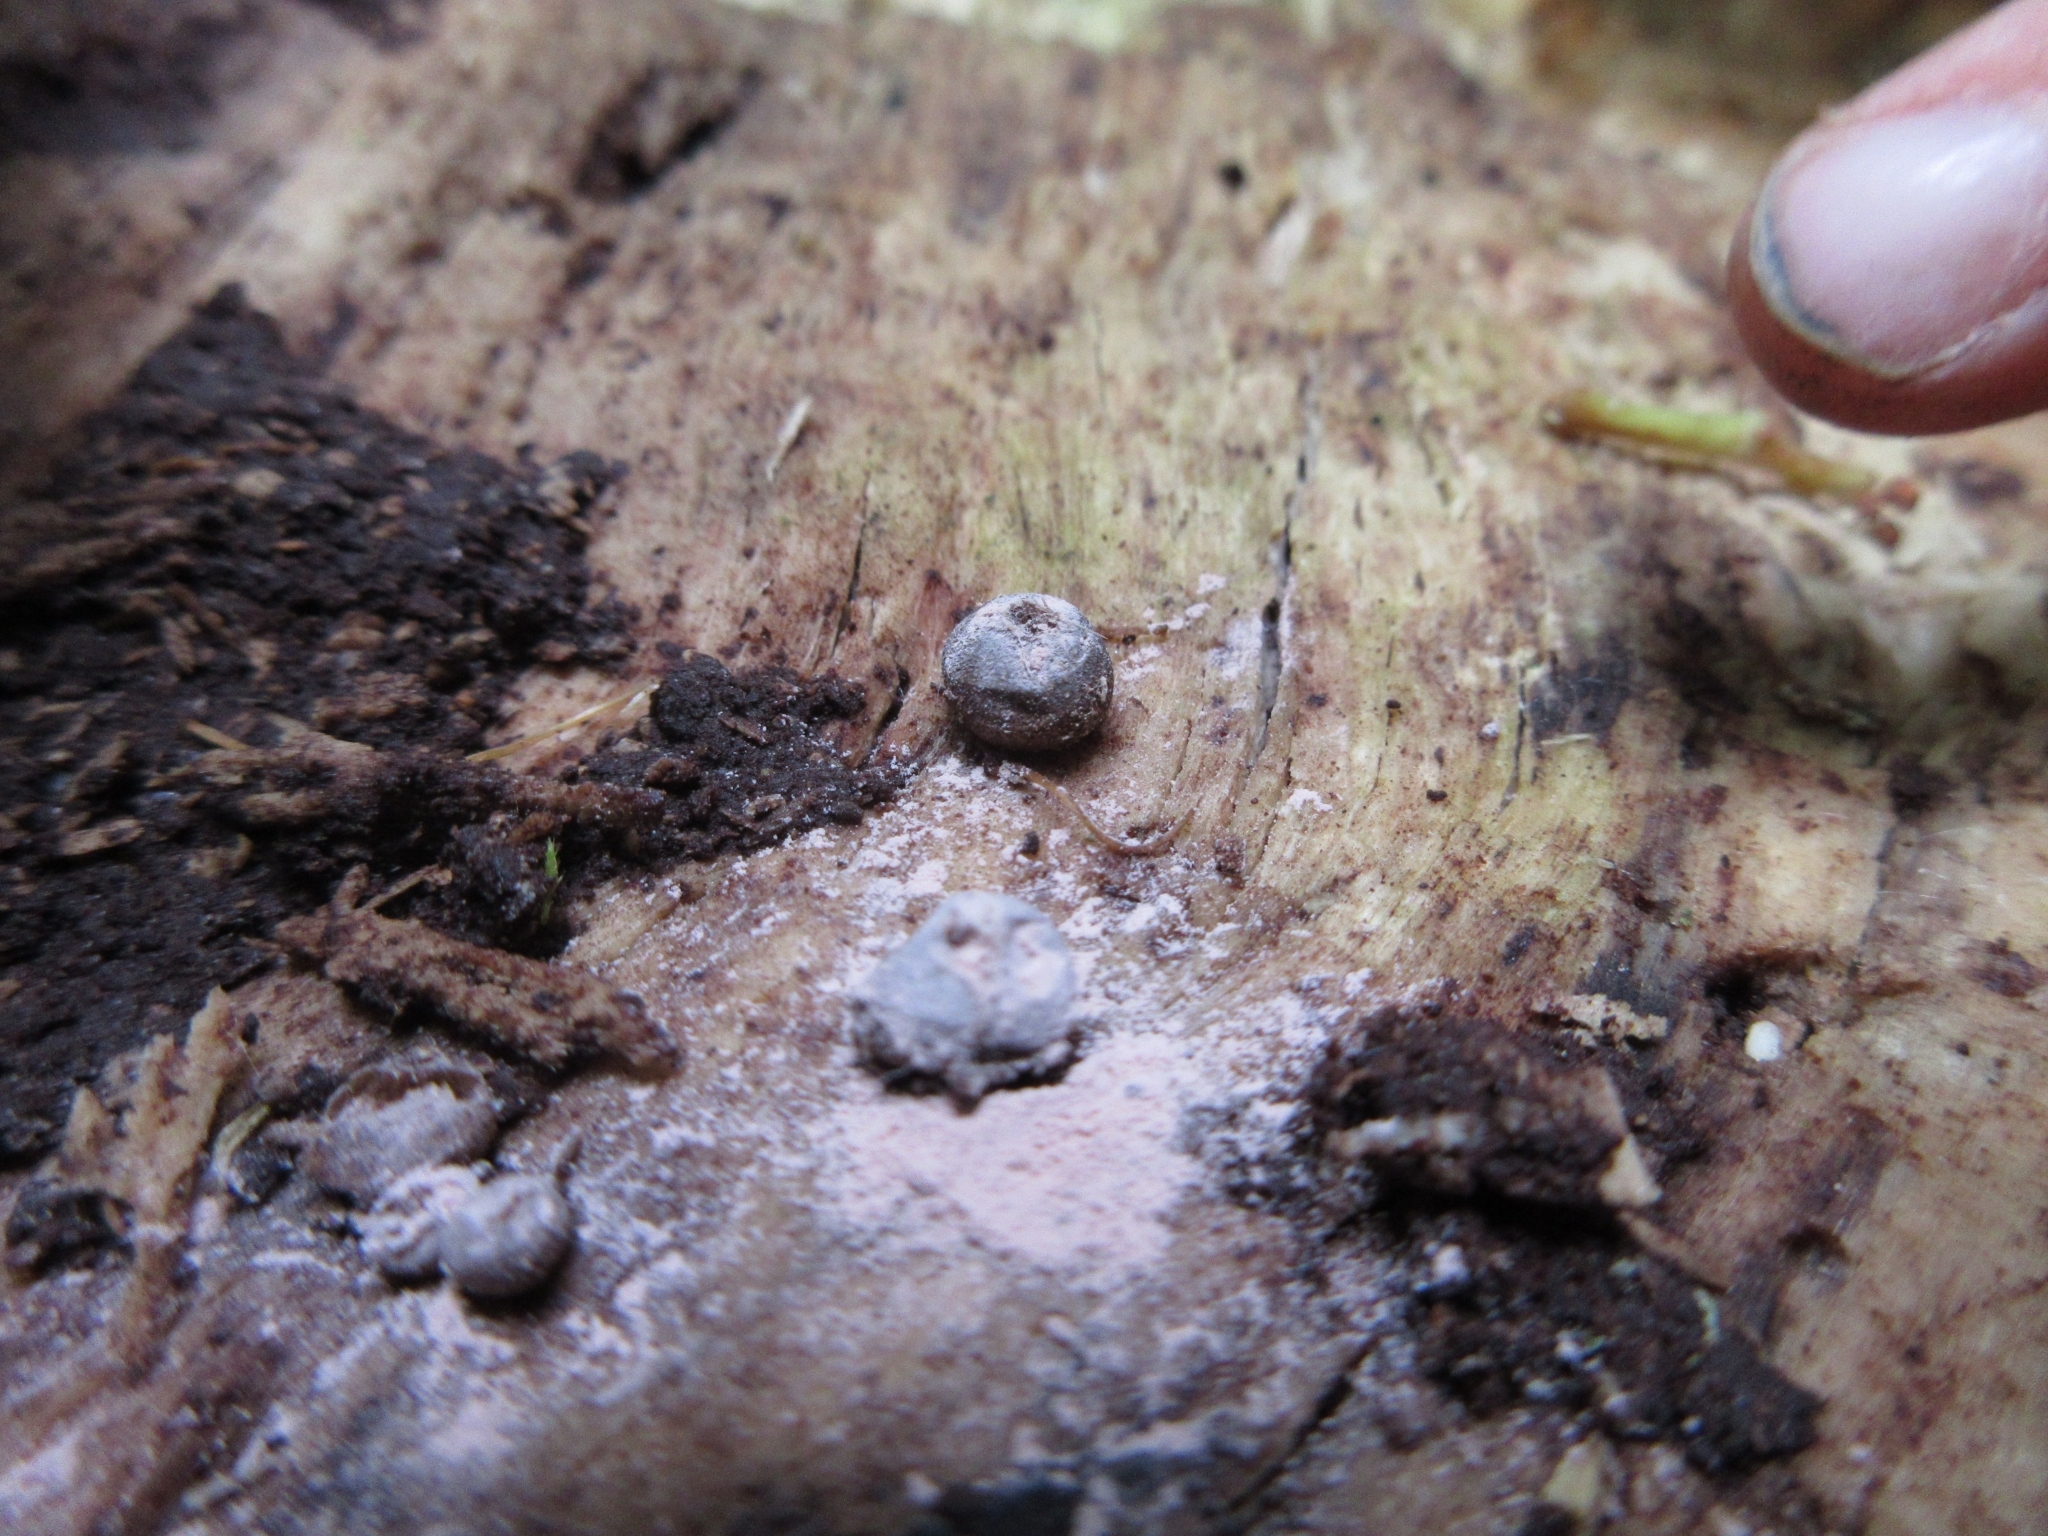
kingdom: Protozoa
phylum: Mycetozoa
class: Myxomycetes
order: Cribrariales
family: Tubiferaceae
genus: Lycogala
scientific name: Lycogala epidendrum
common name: Wolf's milk
